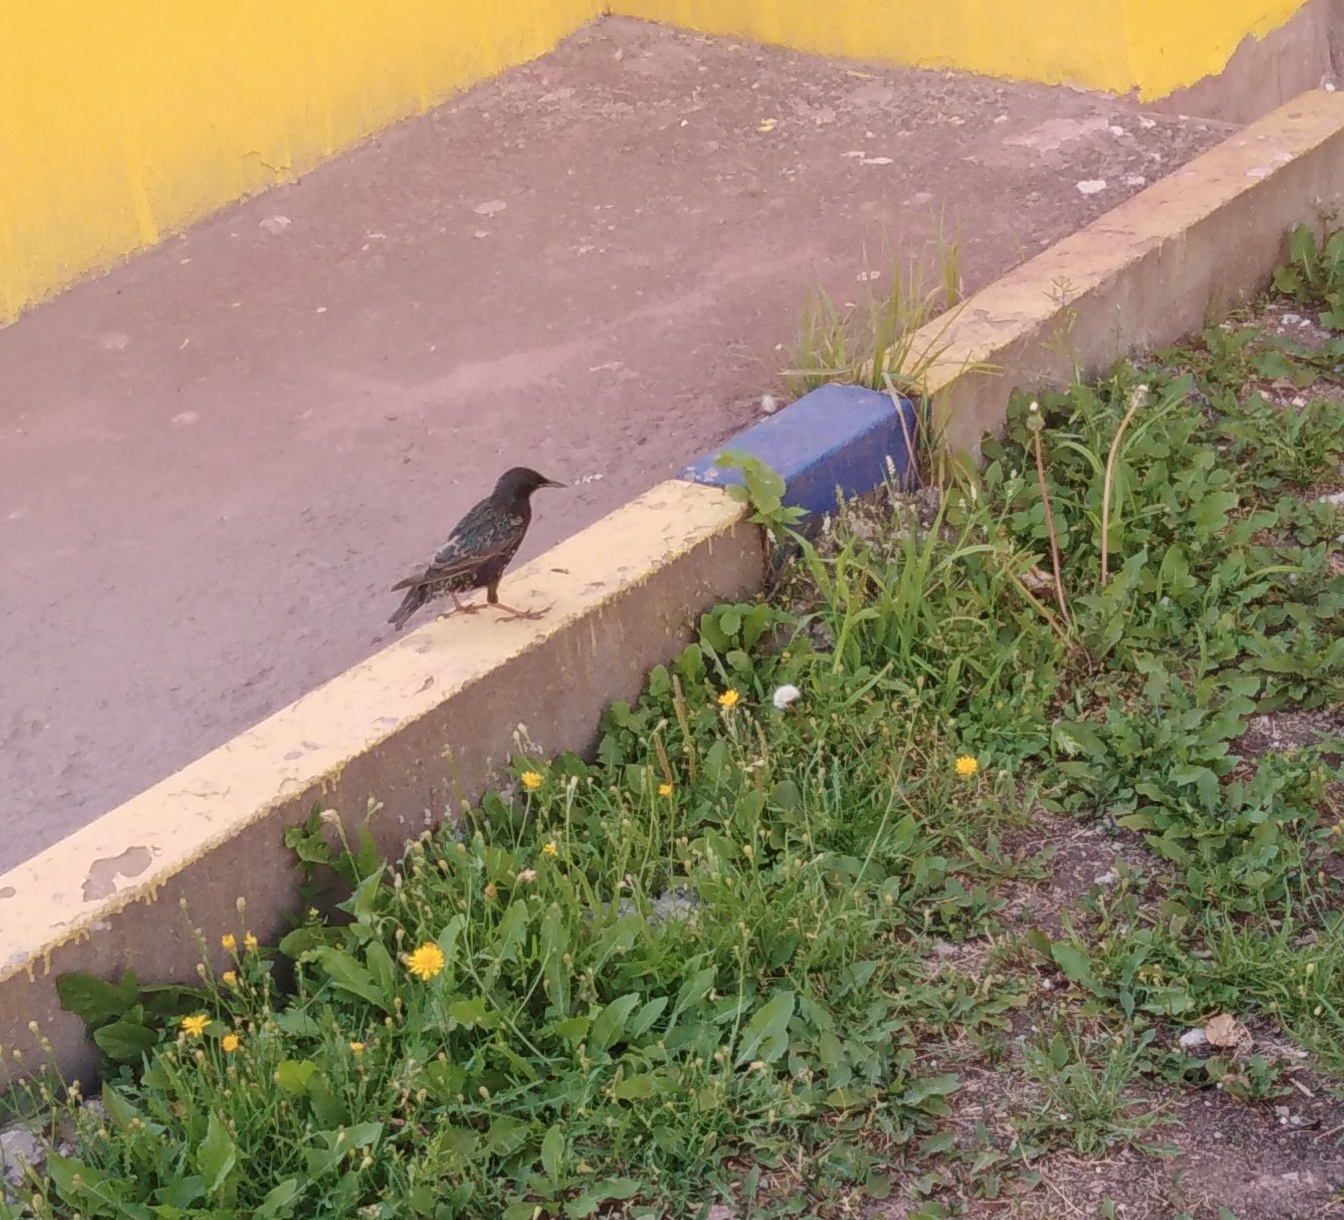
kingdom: Animalia
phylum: Chordata
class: Aves
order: Passeriformes
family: Sturnidae
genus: Sturnus
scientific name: Sturnus vulgaris
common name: Common starling
